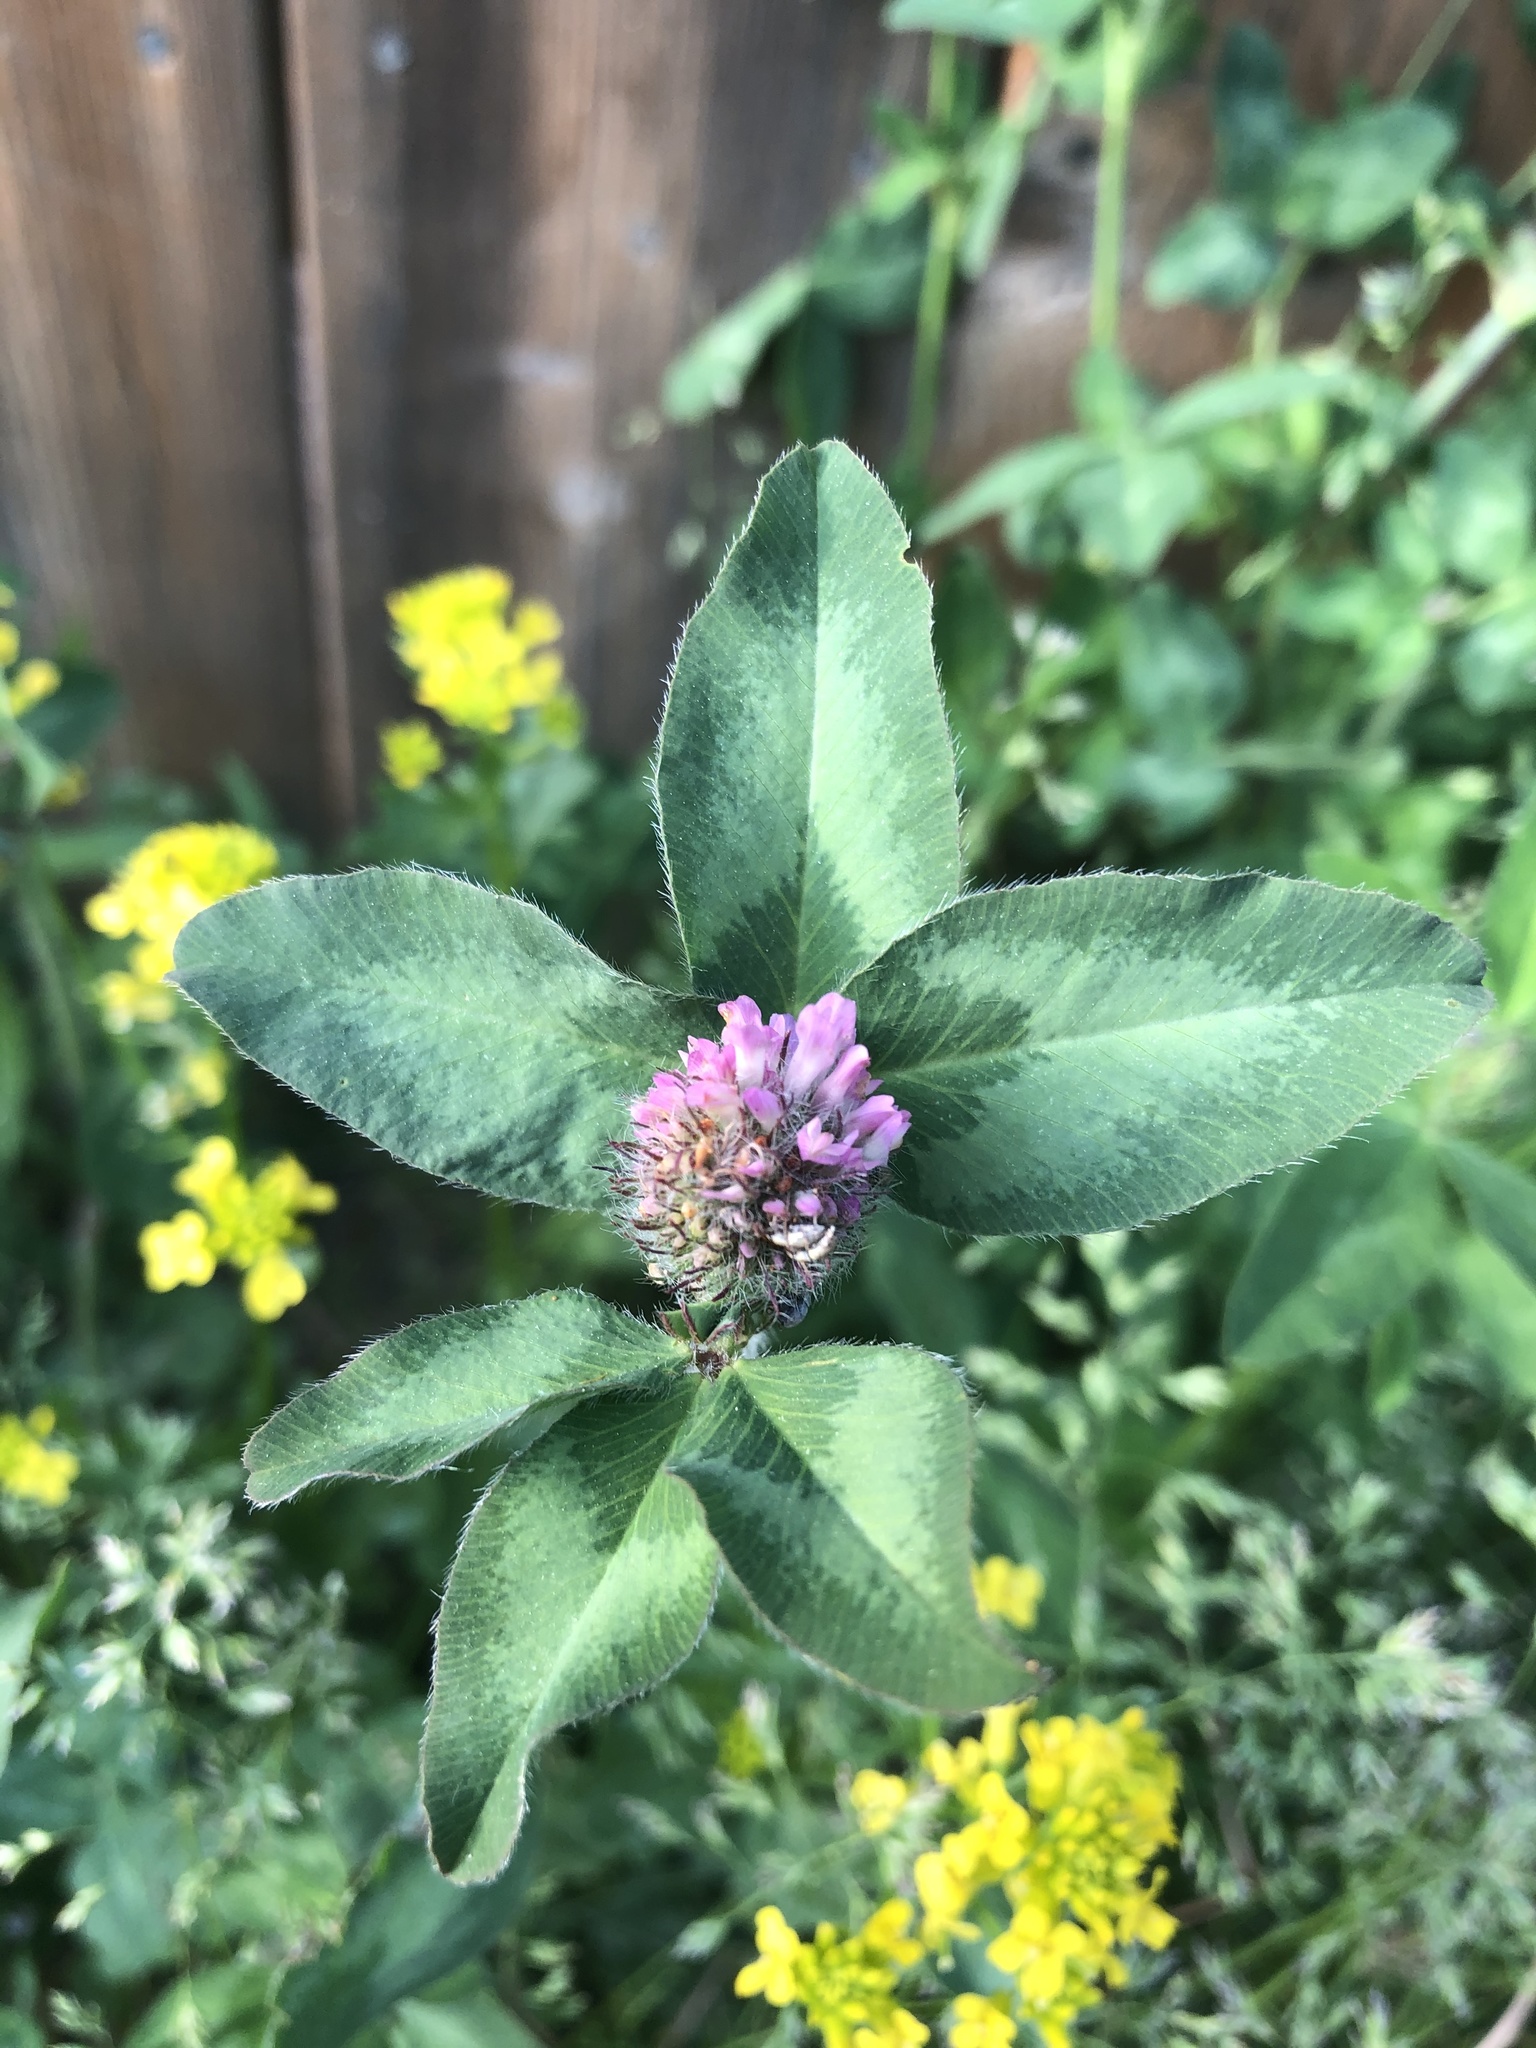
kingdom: Plantae
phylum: Tracheophyta
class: Magnoliopsida
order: Asterales
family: Asteraceae
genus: Achillea
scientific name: Achillea millefolium
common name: Yarrow
